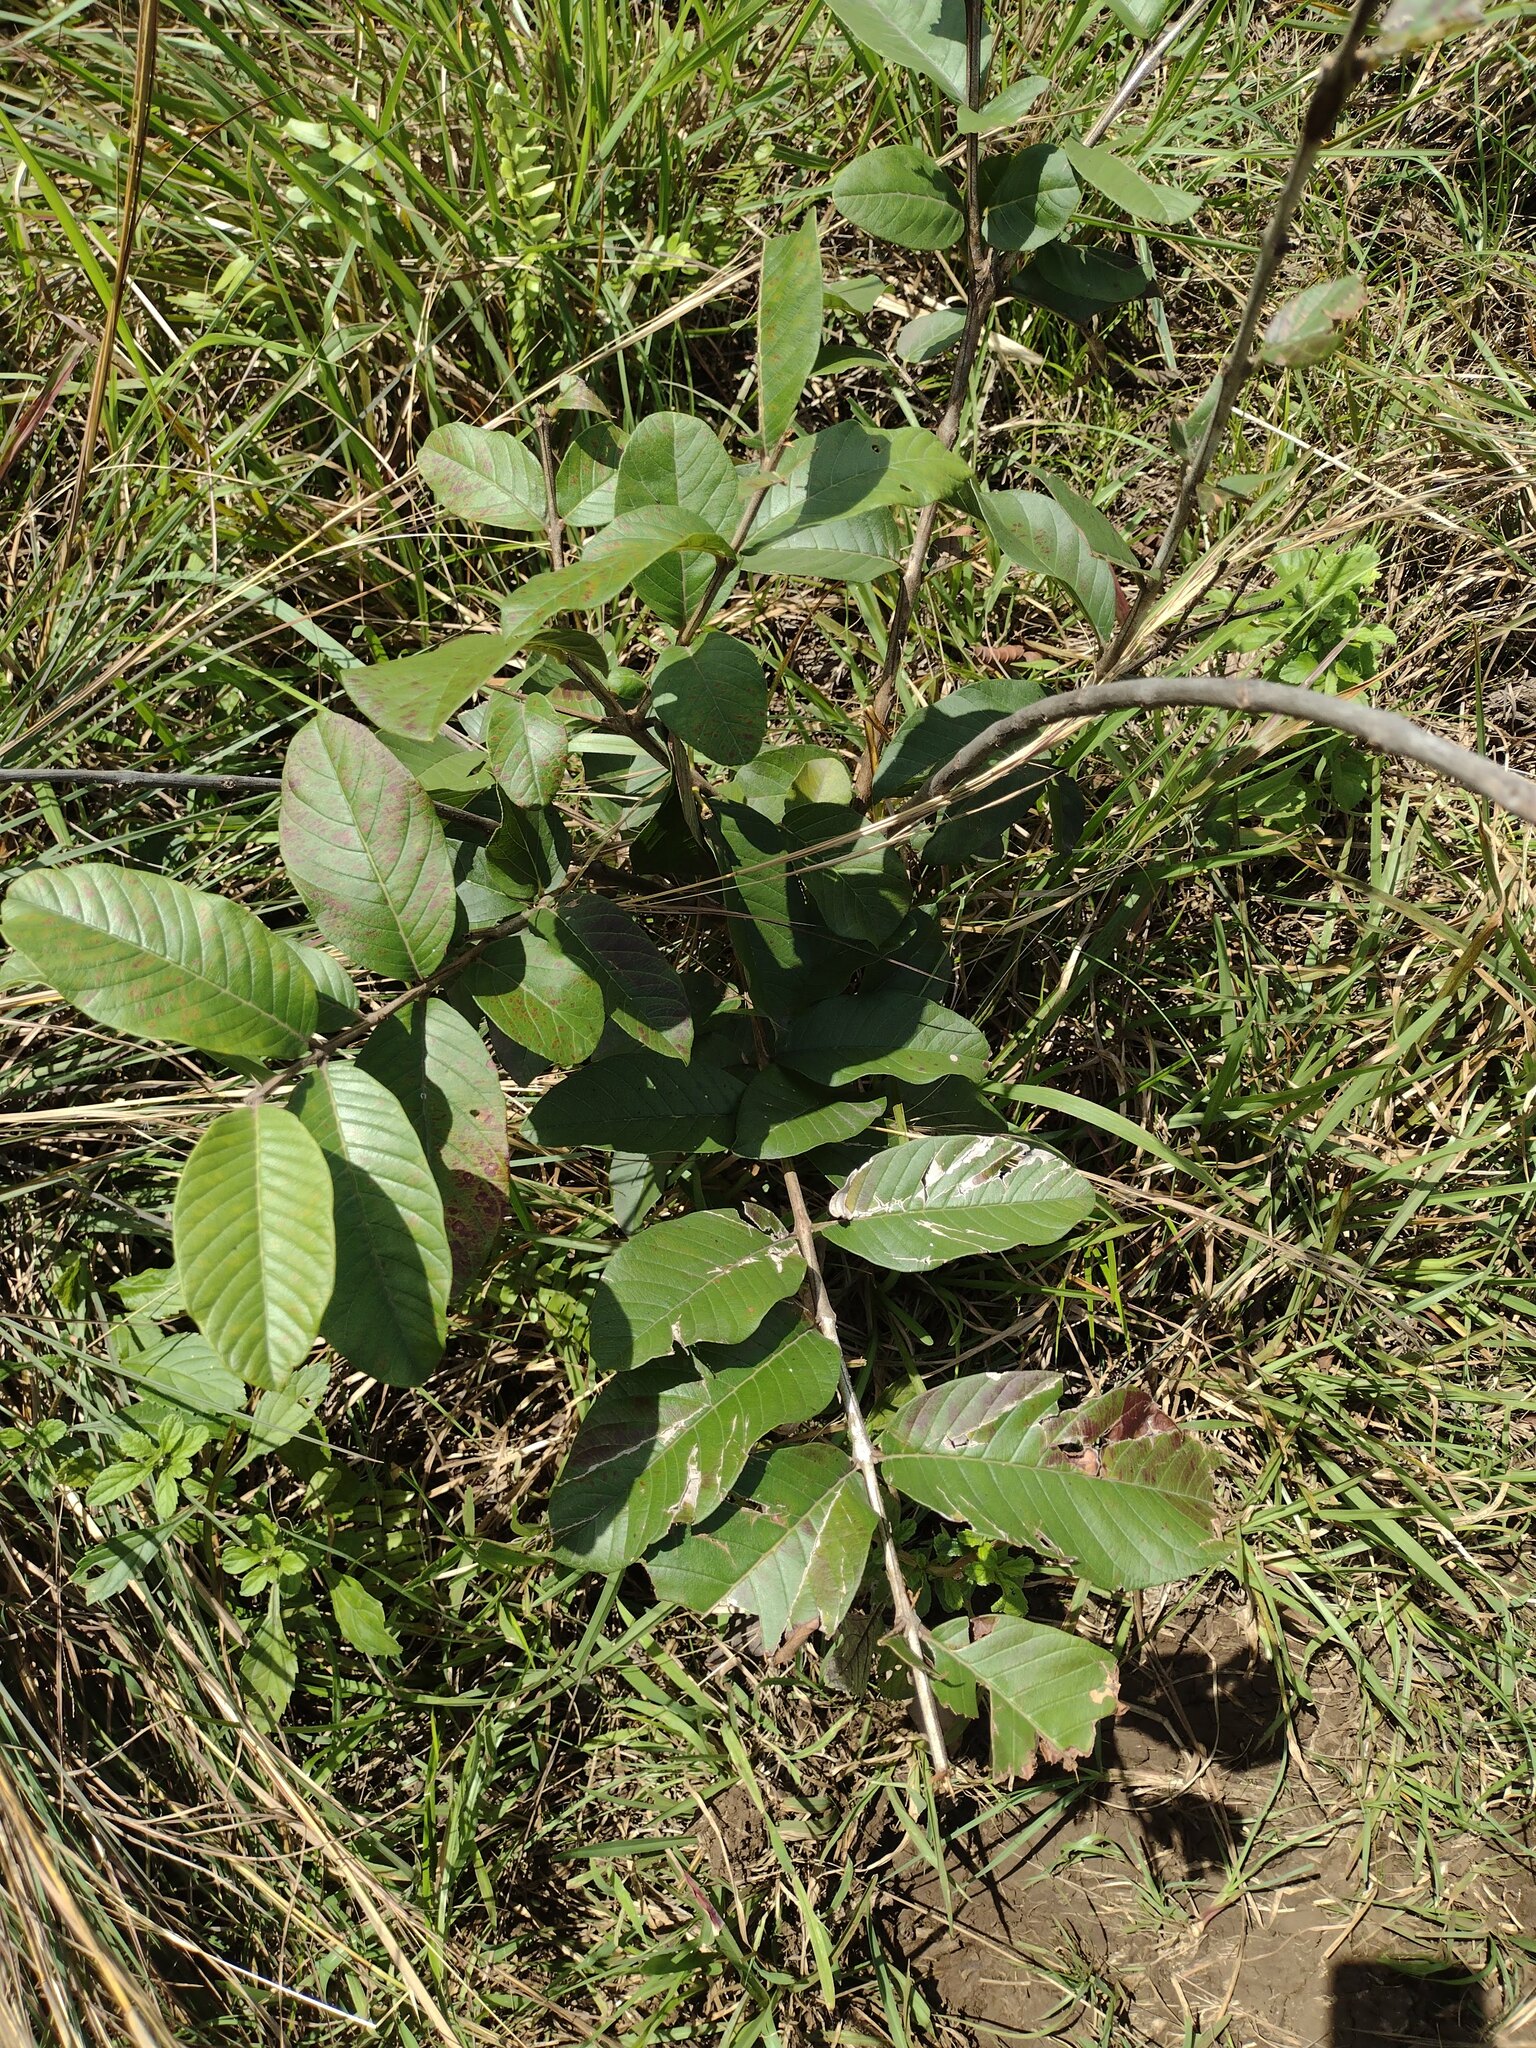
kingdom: Plantae
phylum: Tracheophyta
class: Magnoliopsida
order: Myrtales
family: Myrtaceae
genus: Psidium
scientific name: Psidium guajava
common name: Guava
